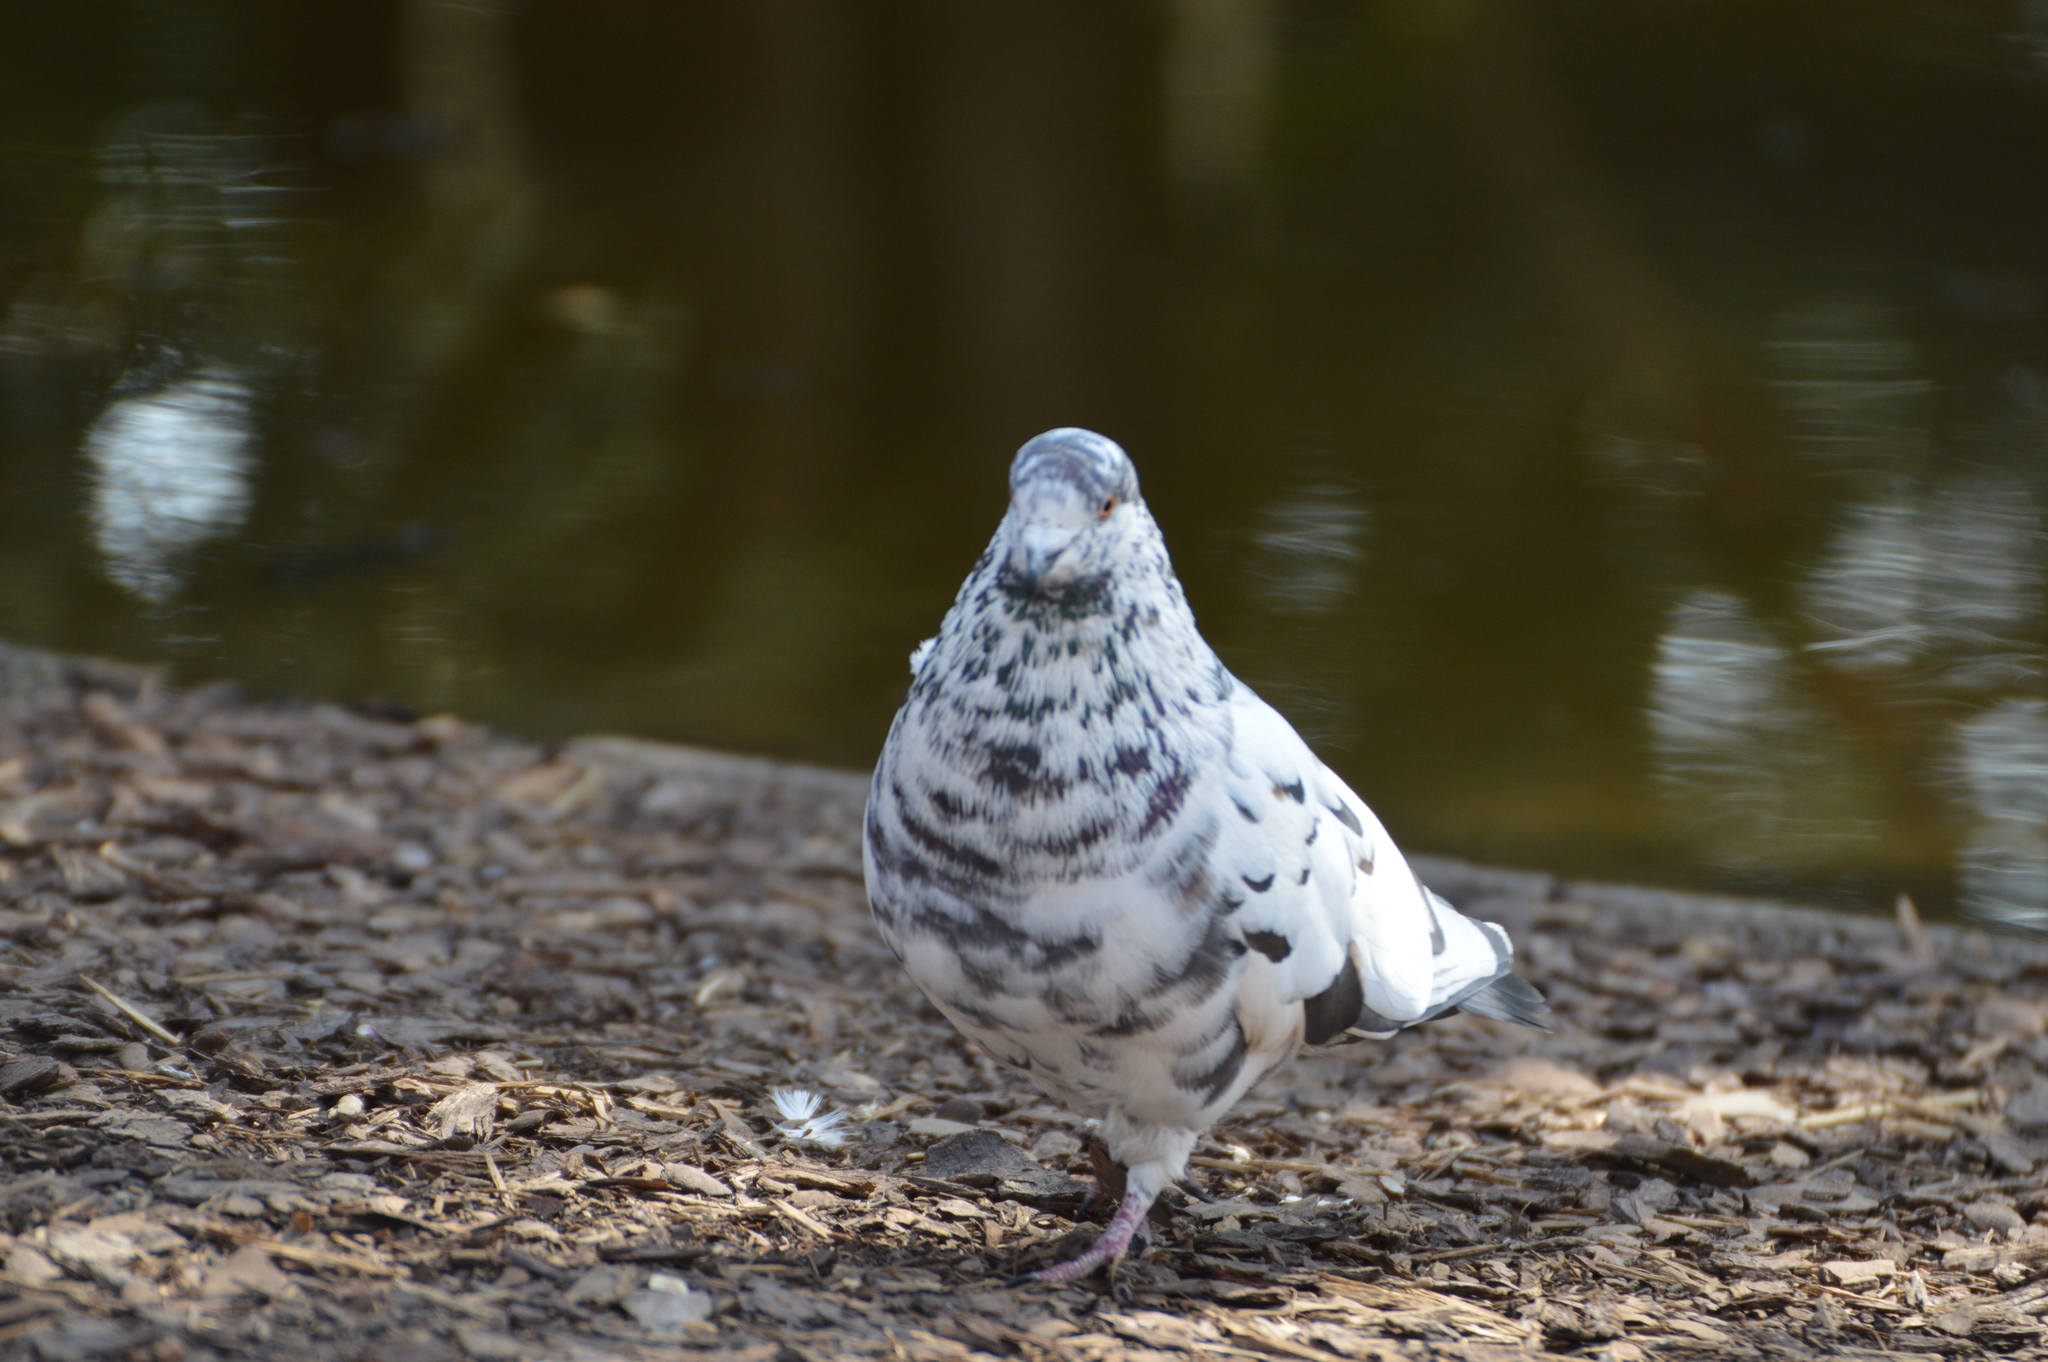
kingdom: Animalia
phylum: Chordata
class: Aves
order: Columbiformes
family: Columbidae
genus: Columba
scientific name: Columba livia
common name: Rock pigeon
